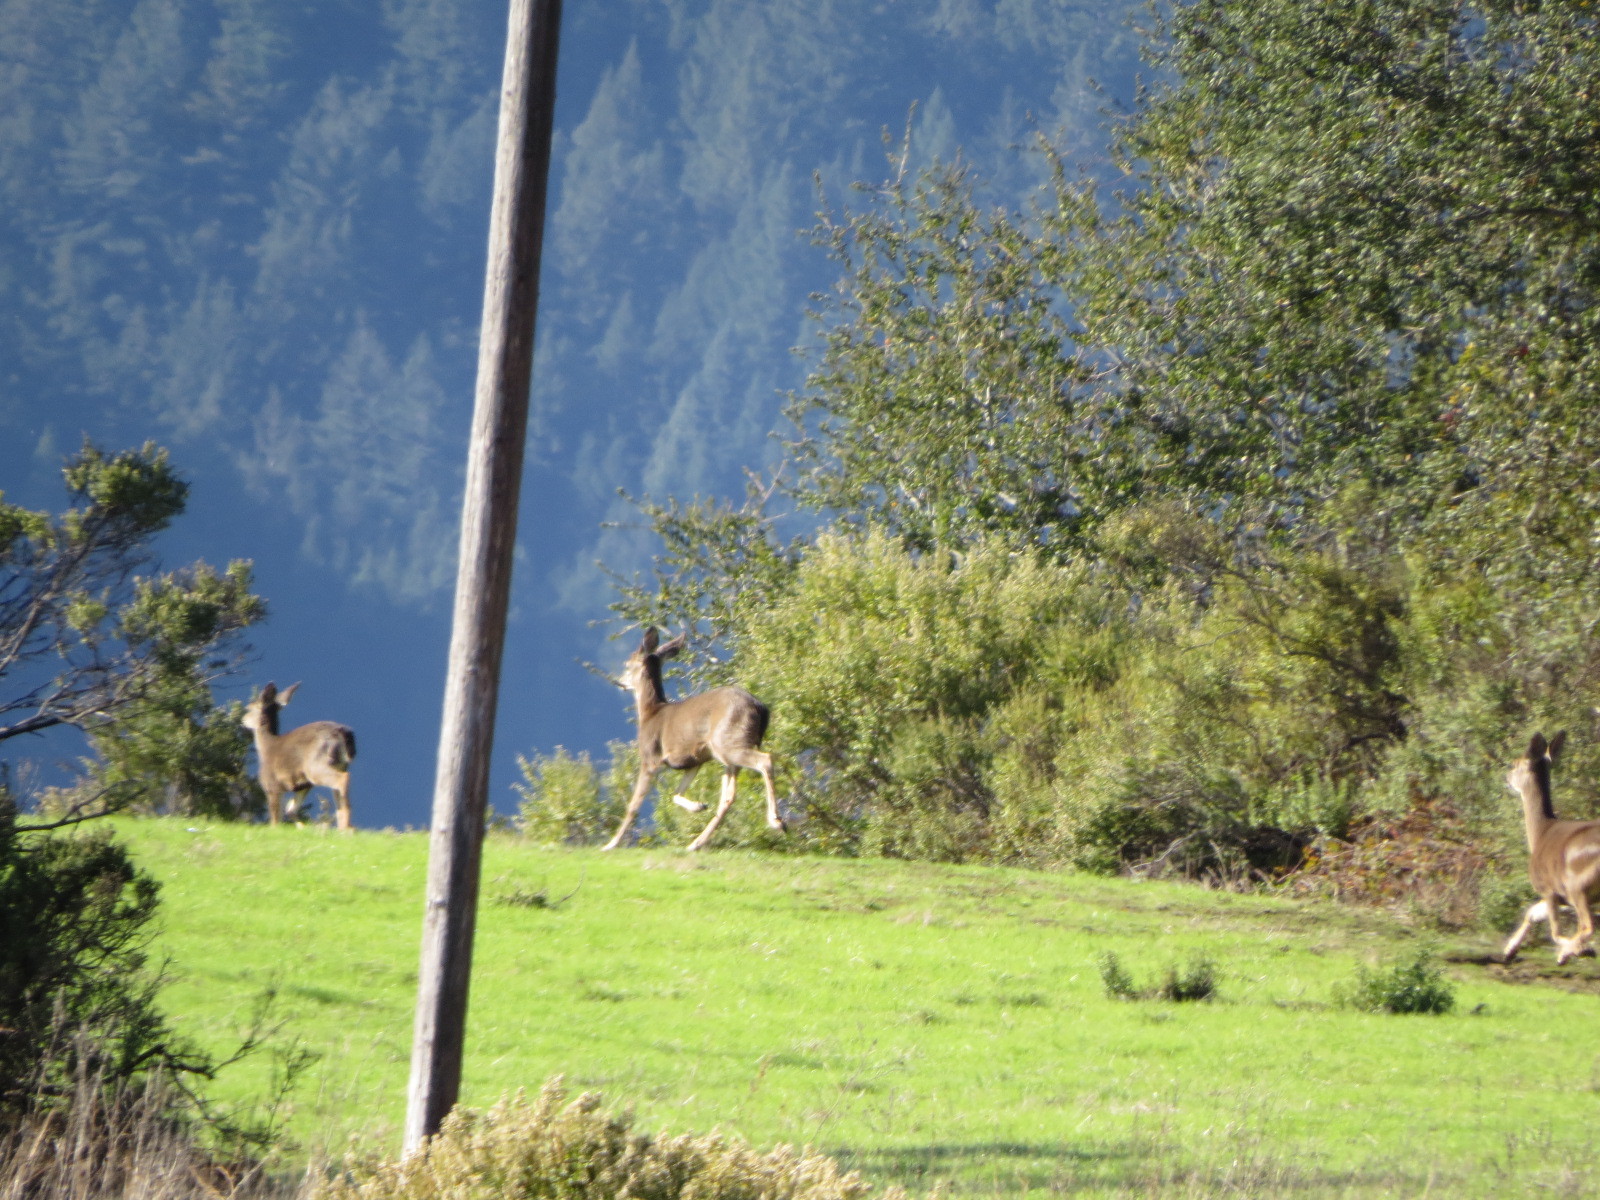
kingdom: Animalia
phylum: Chordata
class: Mammalia
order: Artiodactyla
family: Cervidae
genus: Odocoileus
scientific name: Odocoileus hemionus
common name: Mule deer
